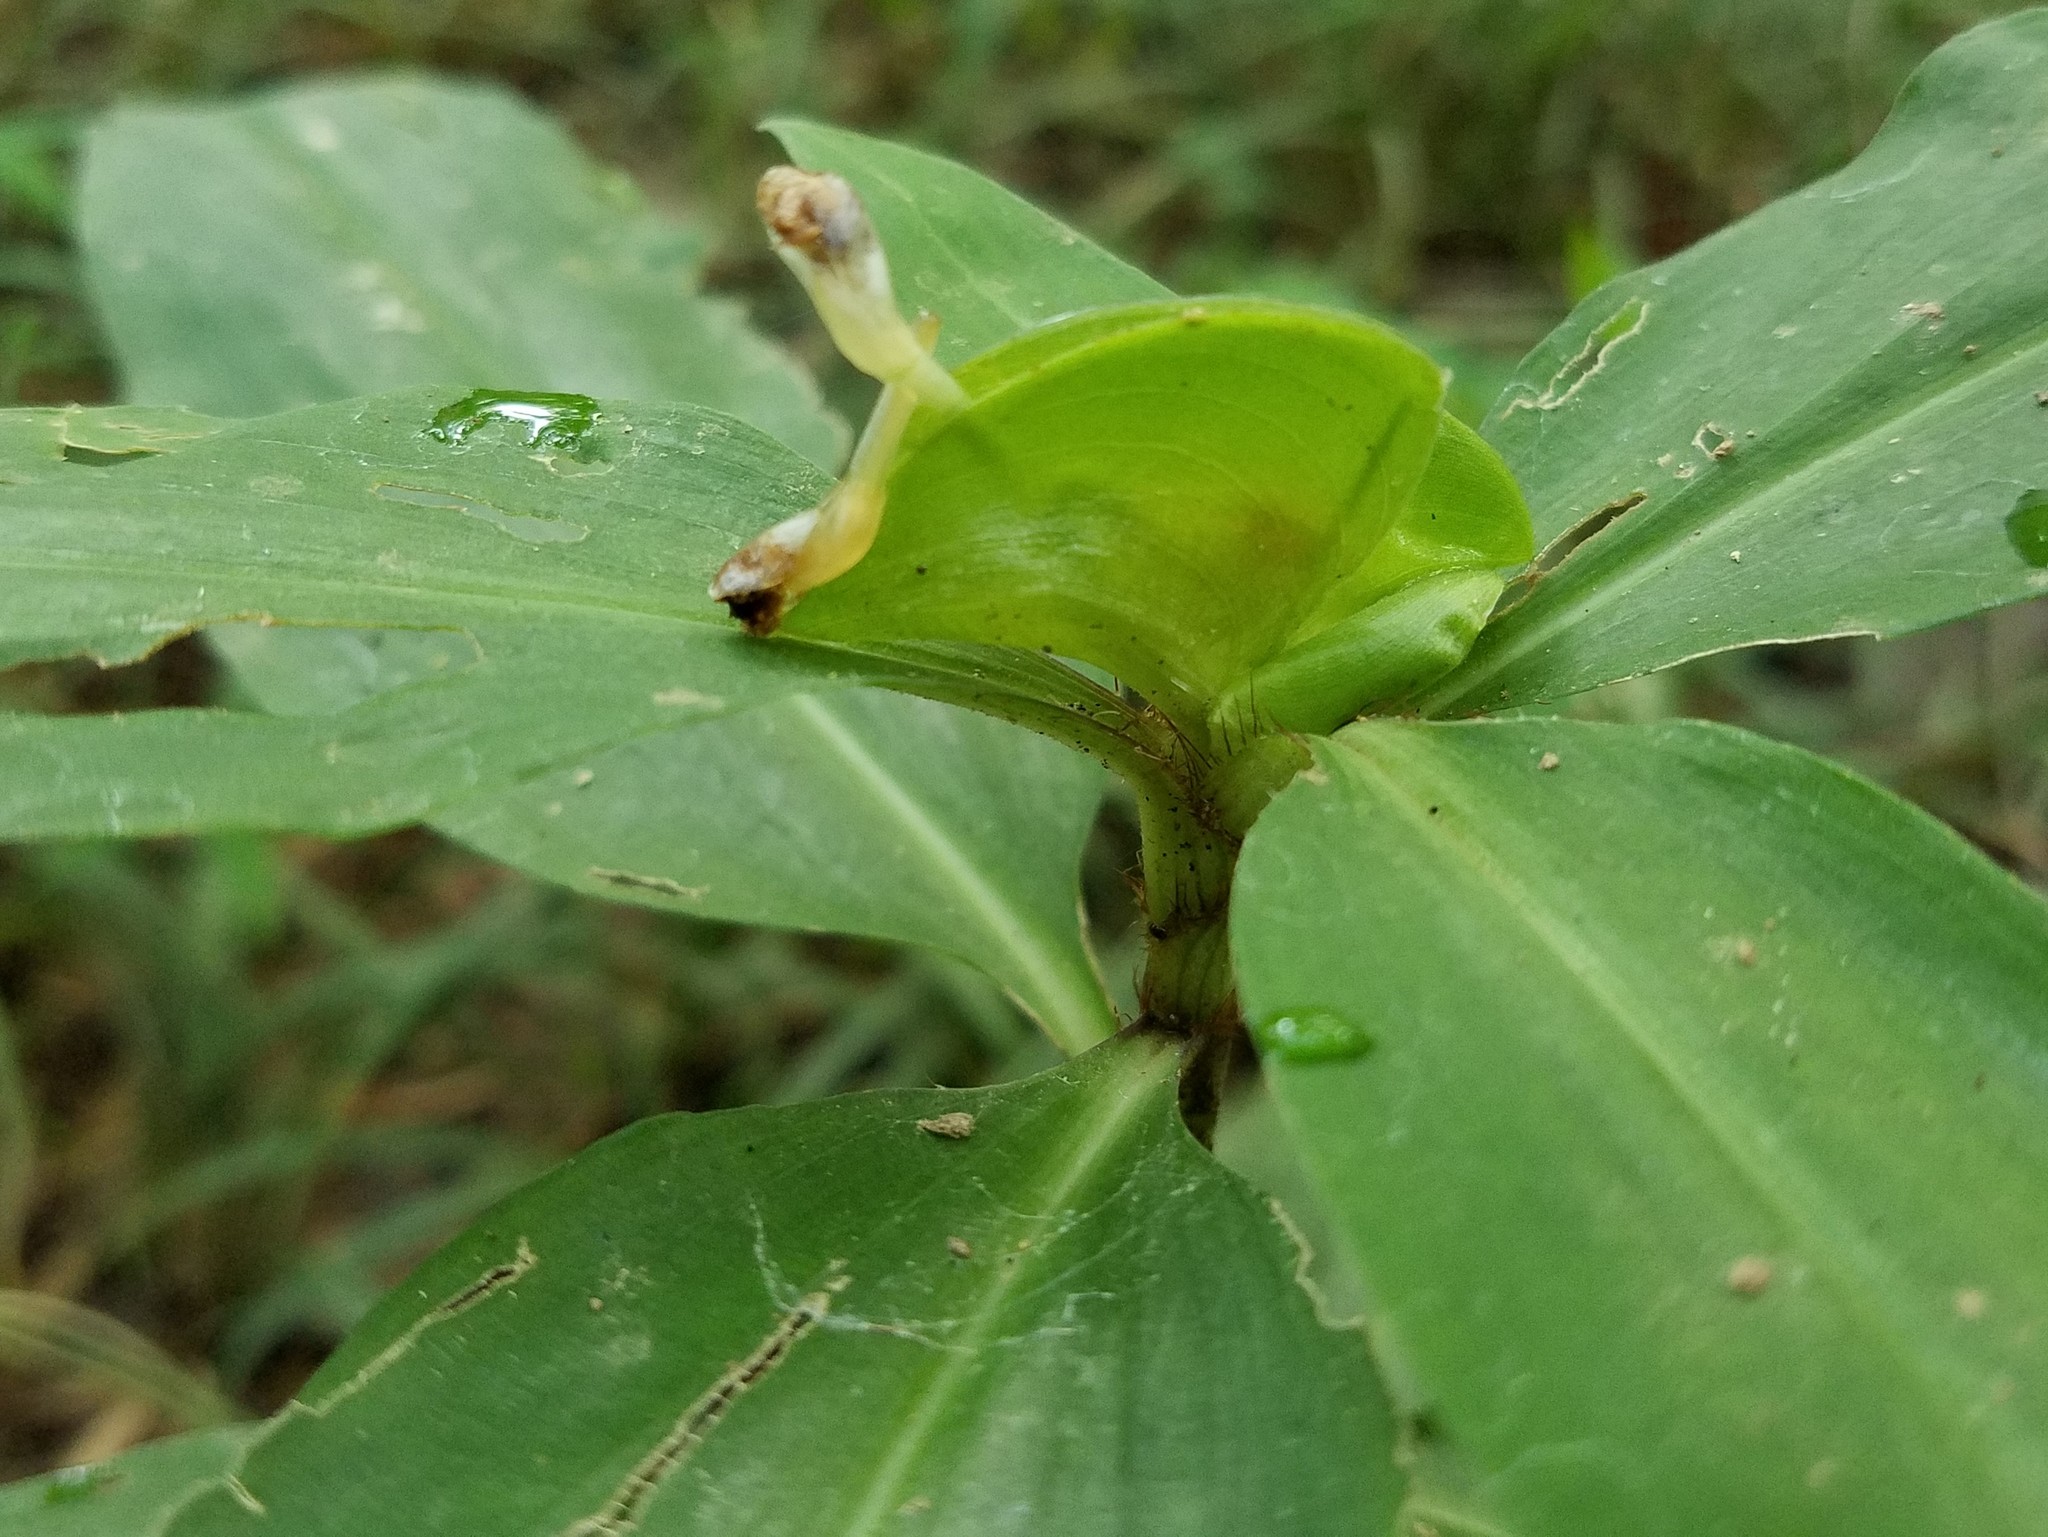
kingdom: Plantae
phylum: Tracheophyta
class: Liliopsida
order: Commelinales
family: Commelinaceae
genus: Commelina
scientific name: Commelina virginica
